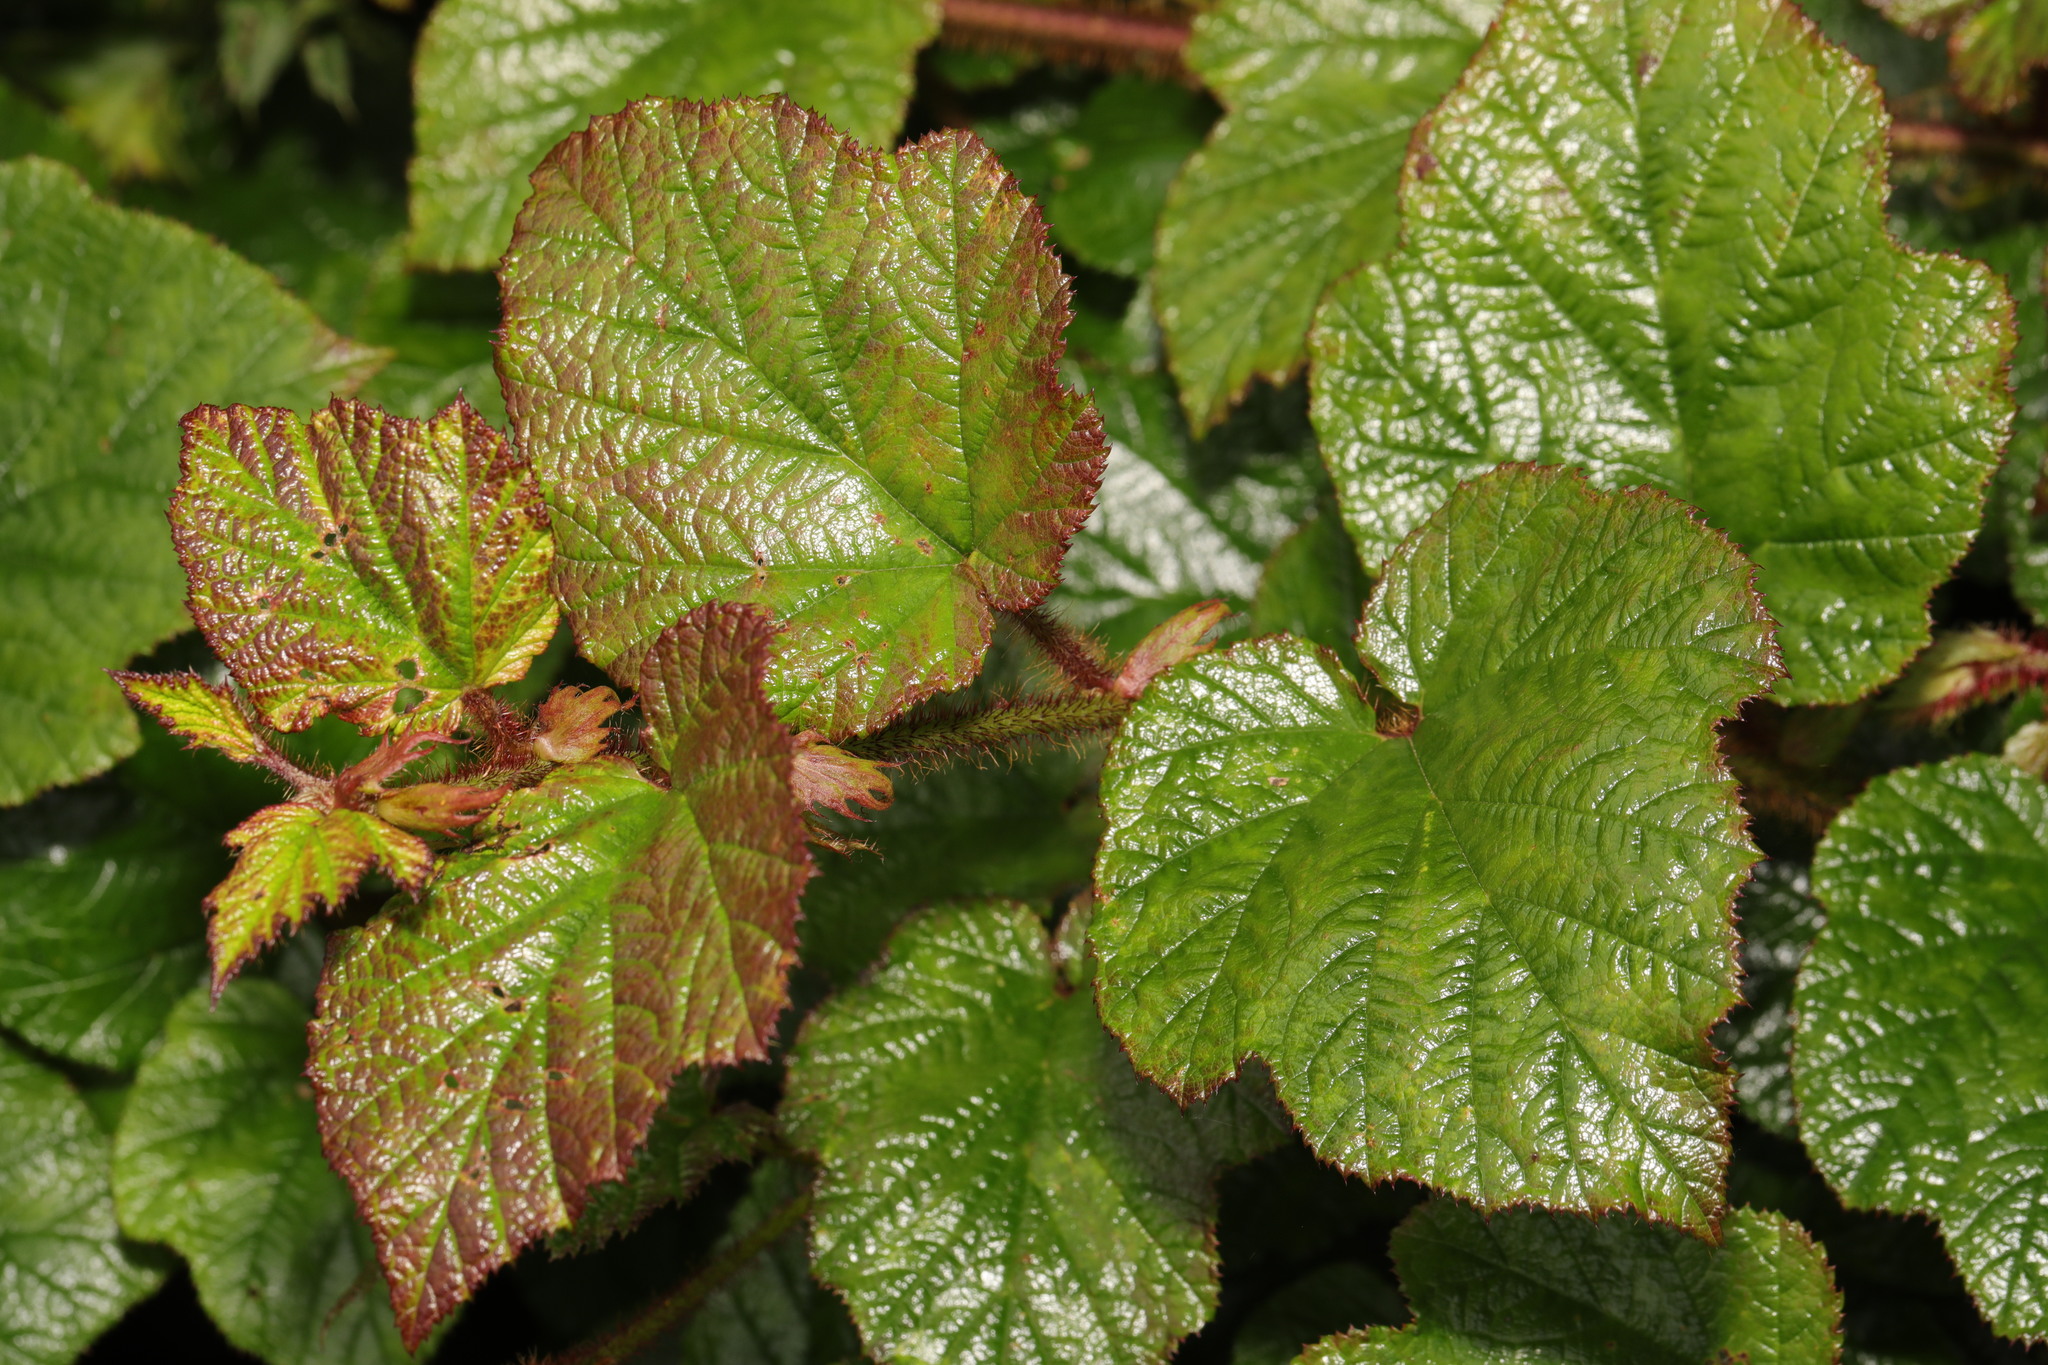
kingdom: Plantae
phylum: Tracheophyta
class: Magnoliopsida
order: Rosales
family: Rosaceae
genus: Rubus
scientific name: Rubus tricolor
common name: Chinese bramble
